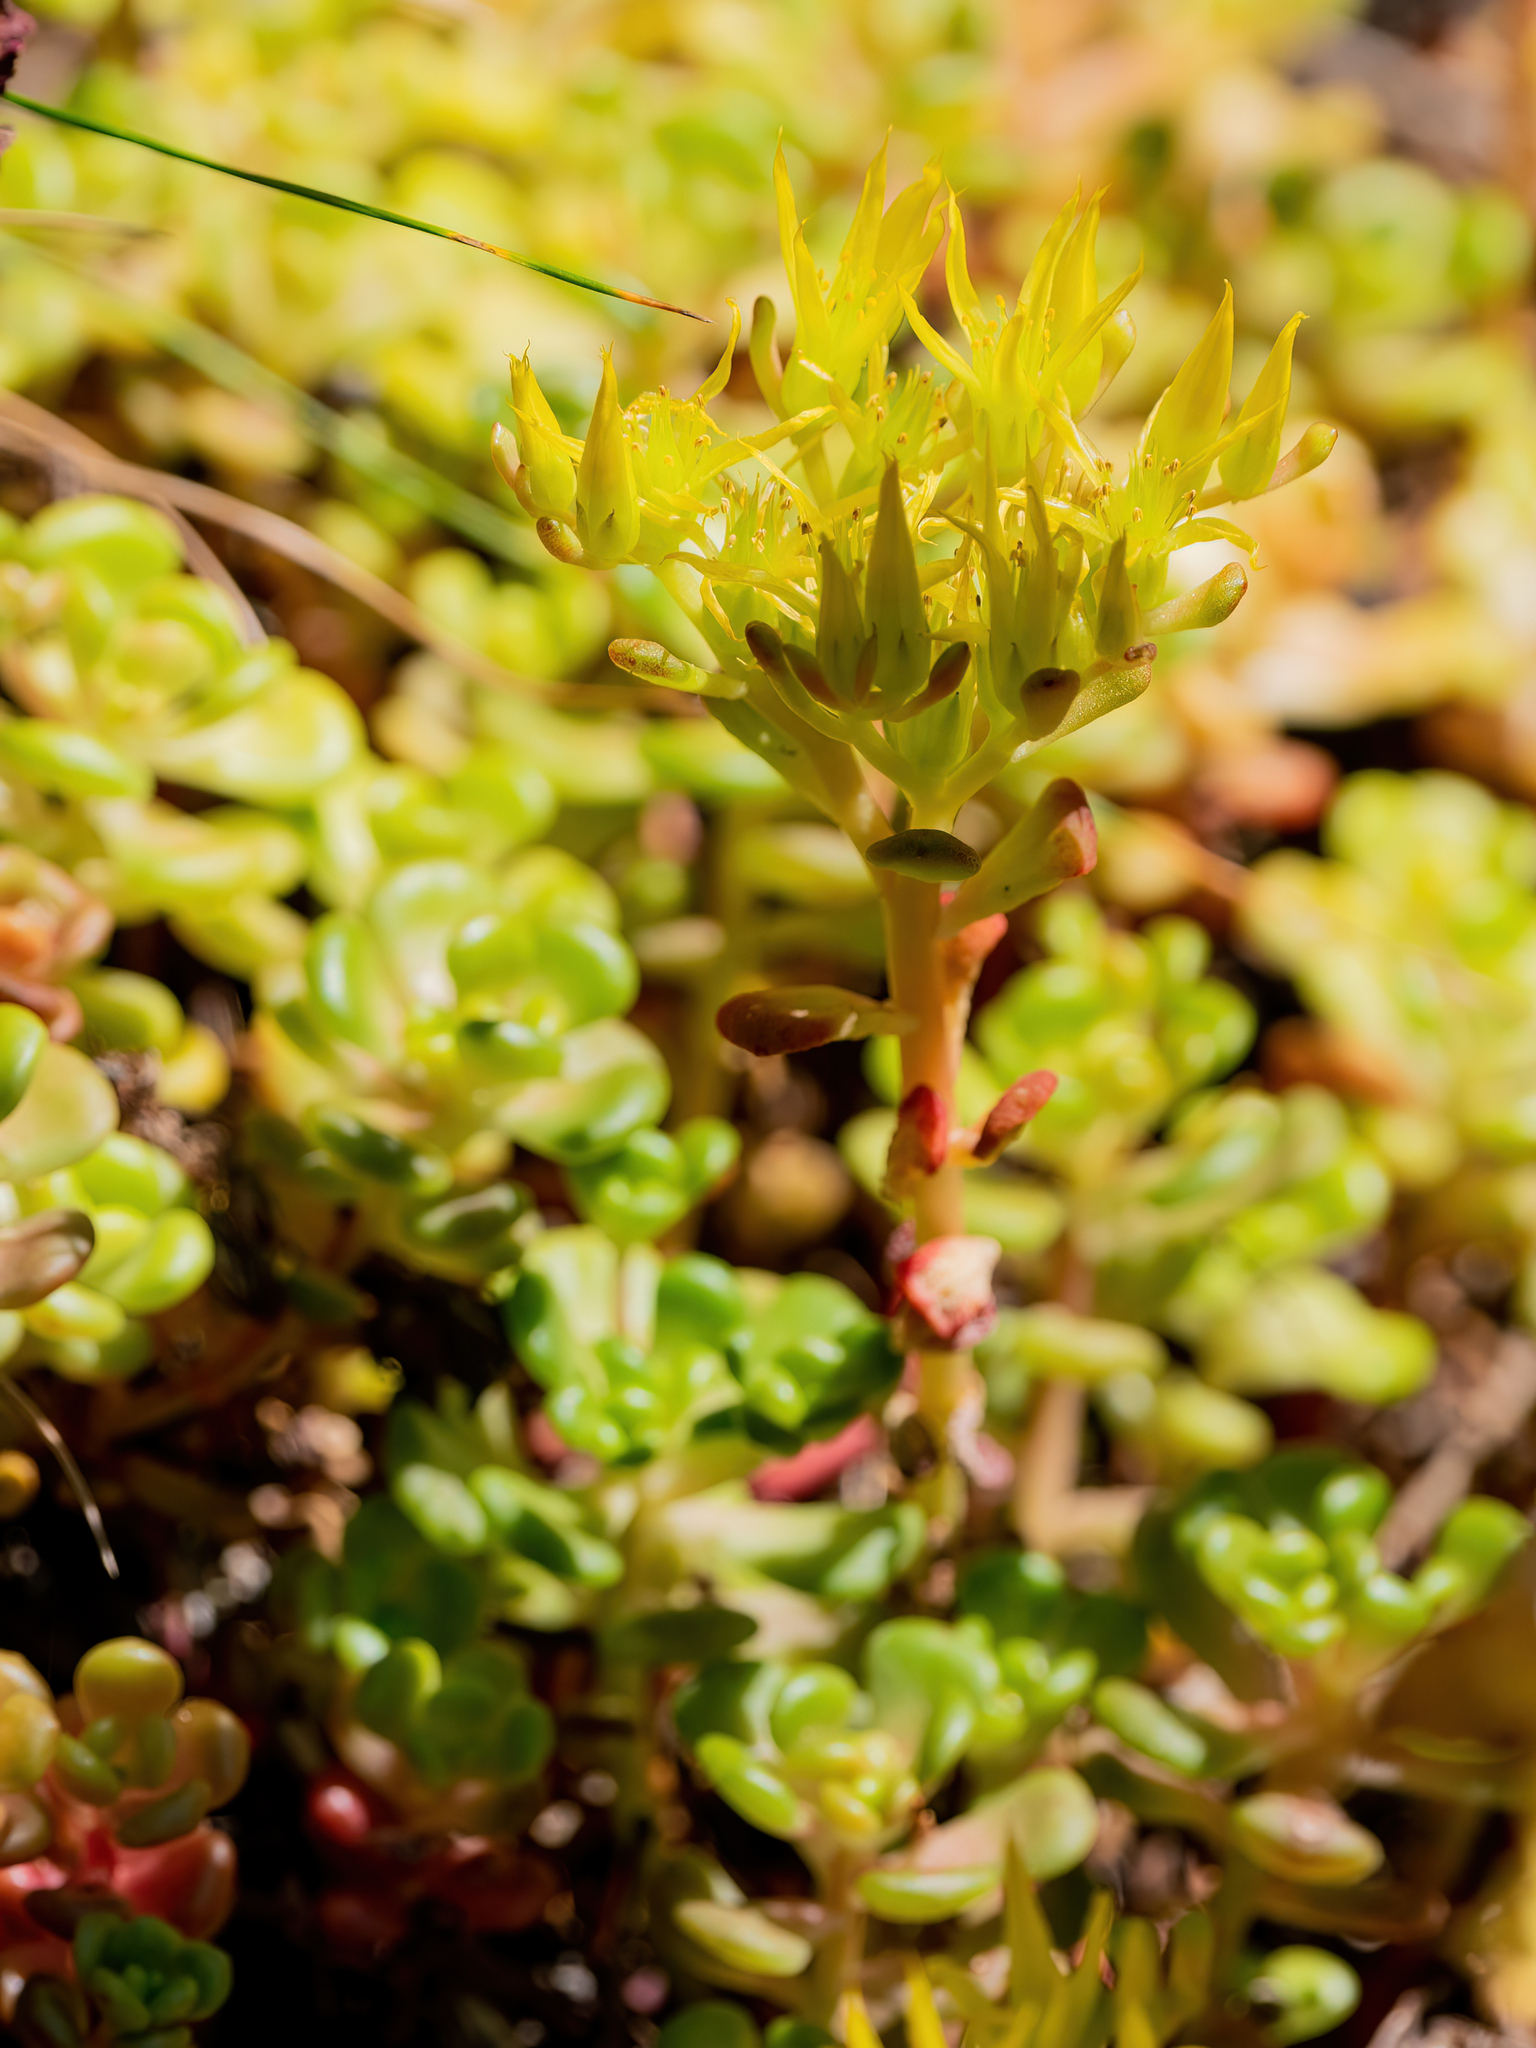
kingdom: Plantae
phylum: Tracheophyta
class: Magnoliopsida
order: Saxifragales
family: Crassulaceae
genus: Sedum
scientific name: Sedum oreganum
